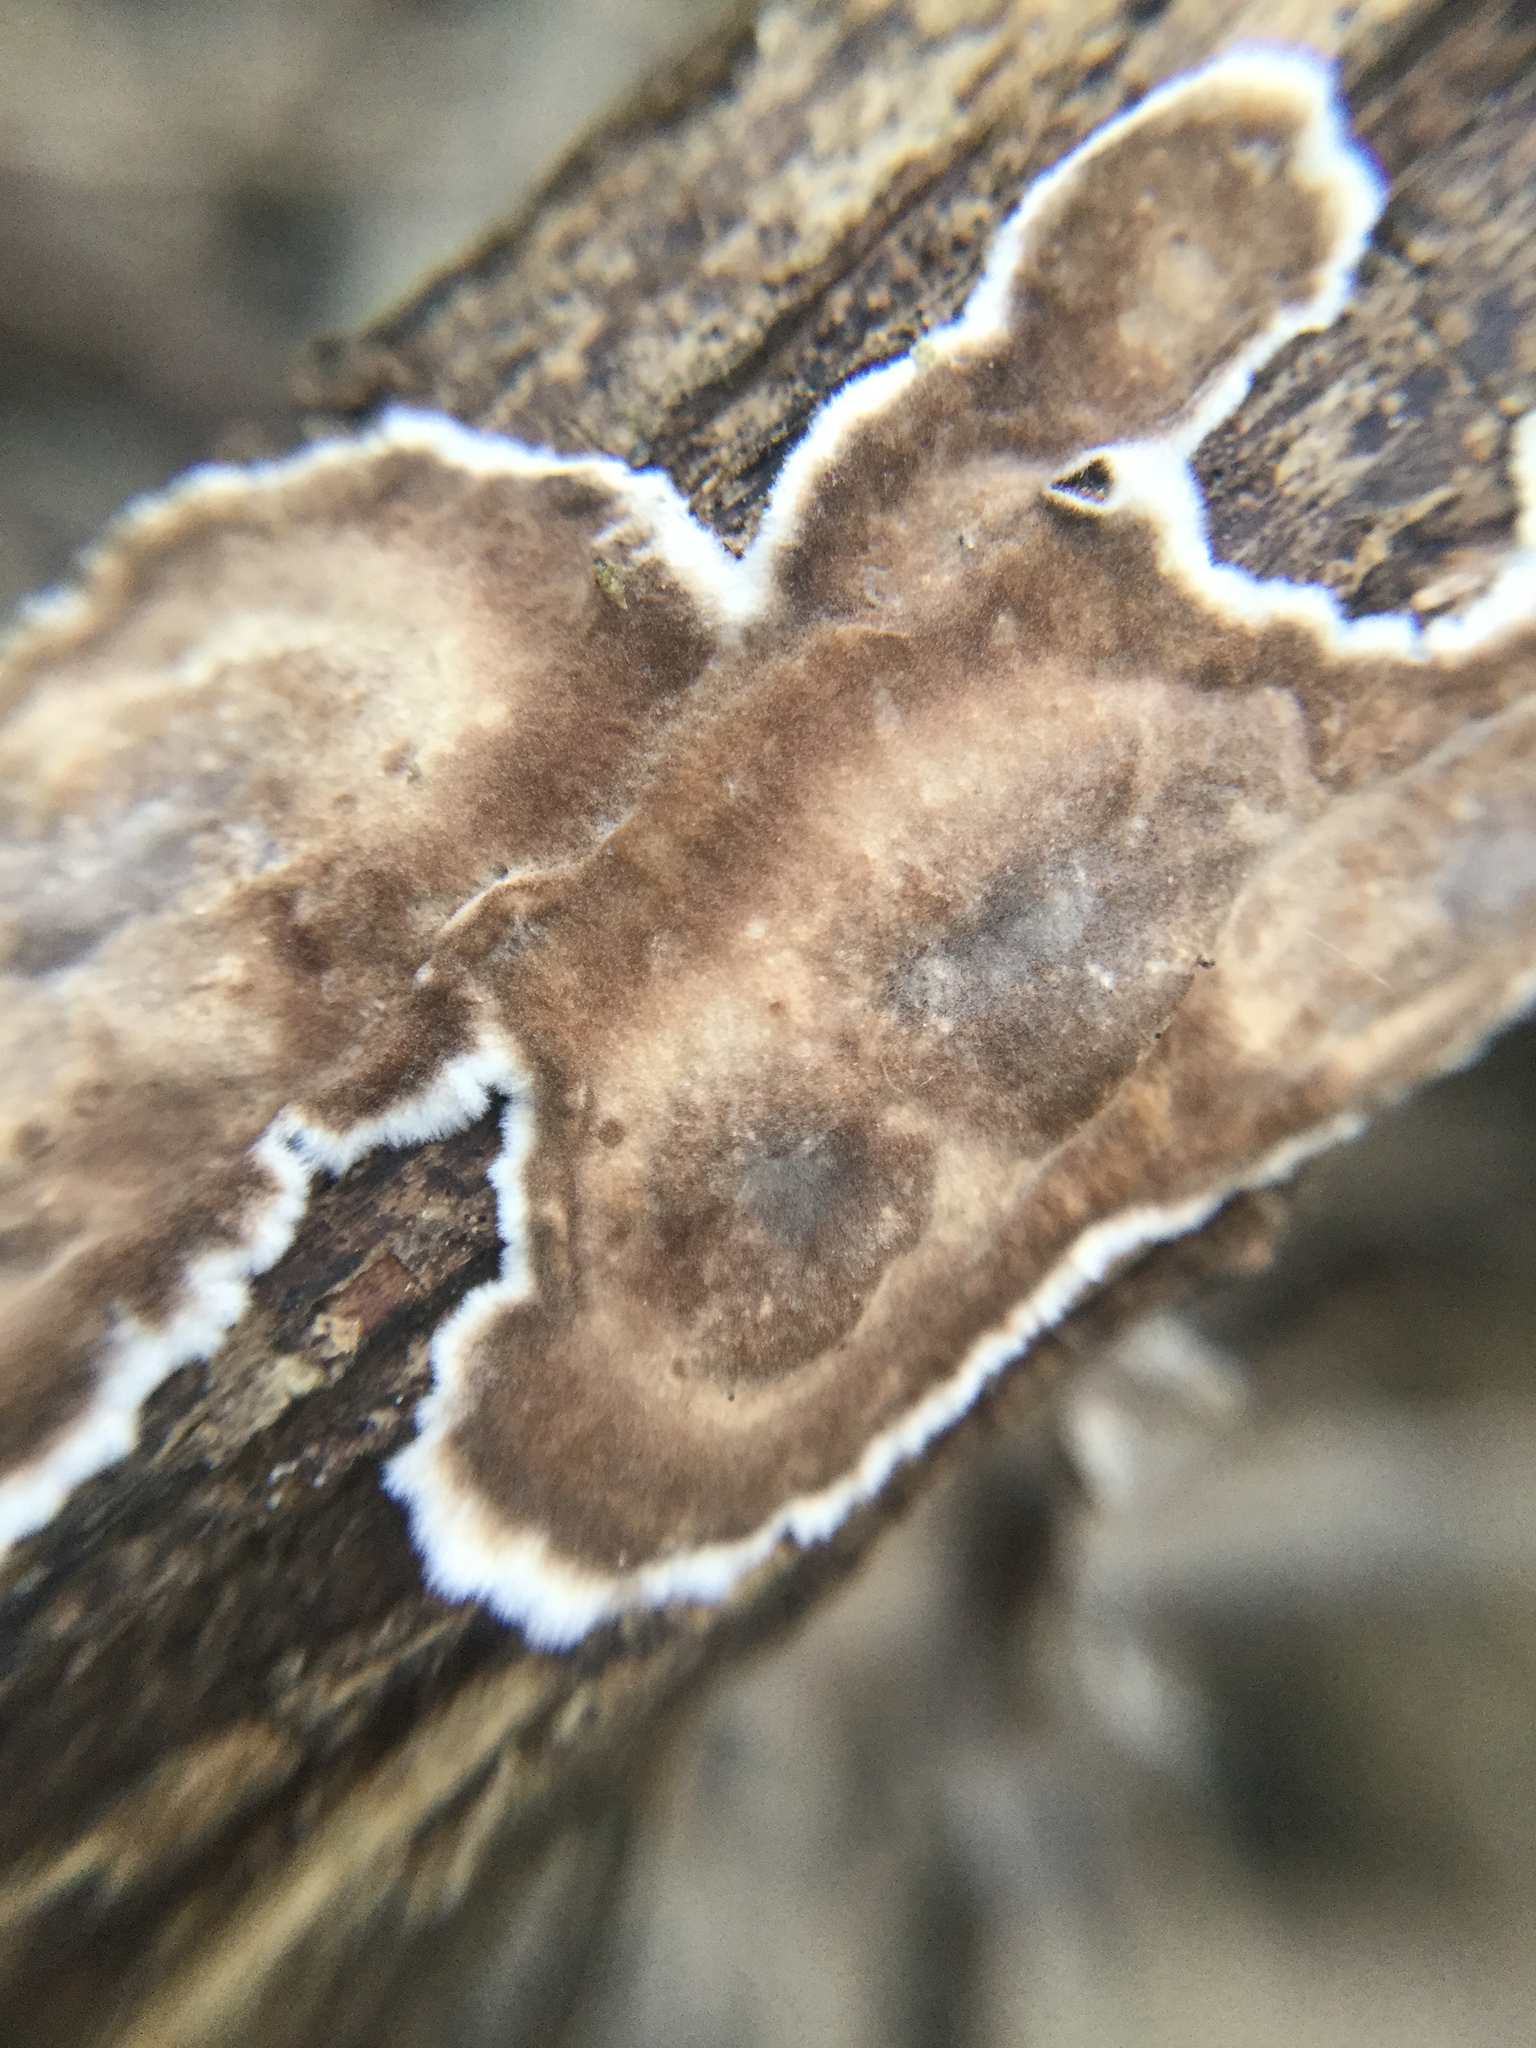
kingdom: Fungi
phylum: Basidiomycota
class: Agaricomycetes
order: Russulales
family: Peniophoraceae
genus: Peniophora
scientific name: Peniophora albobadia
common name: Giraffe spots
